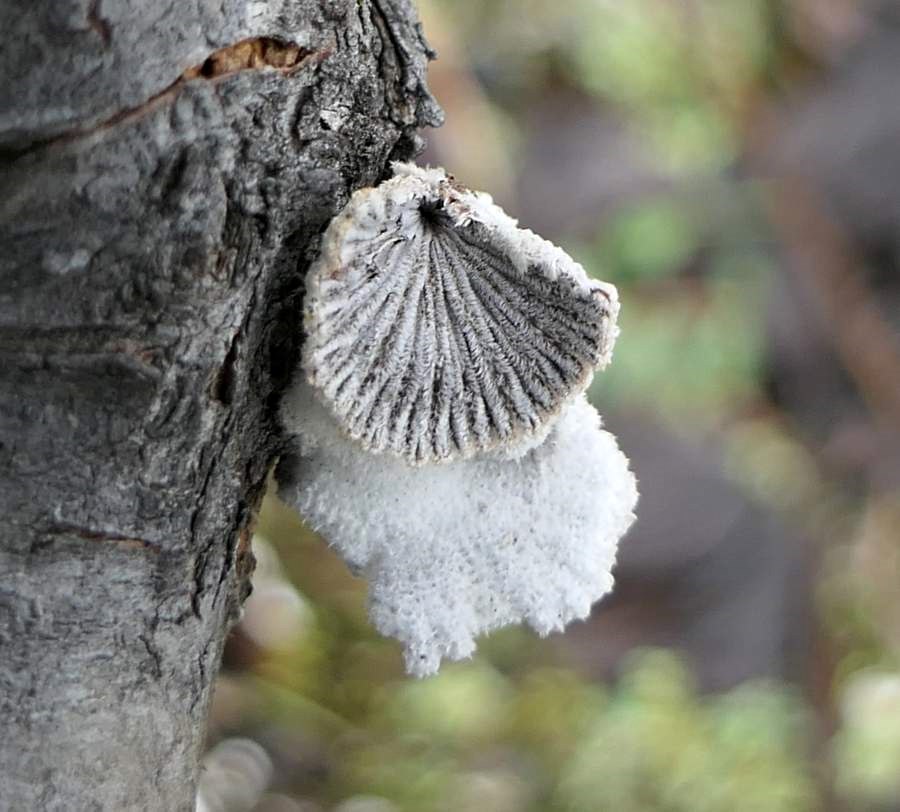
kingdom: Fungi
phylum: Basidiomycota
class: Agaricomycetes
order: Agaricales
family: Schizophyllaceae
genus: Schizophyllum
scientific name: Schizophyllum commune
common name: Common porecrust
